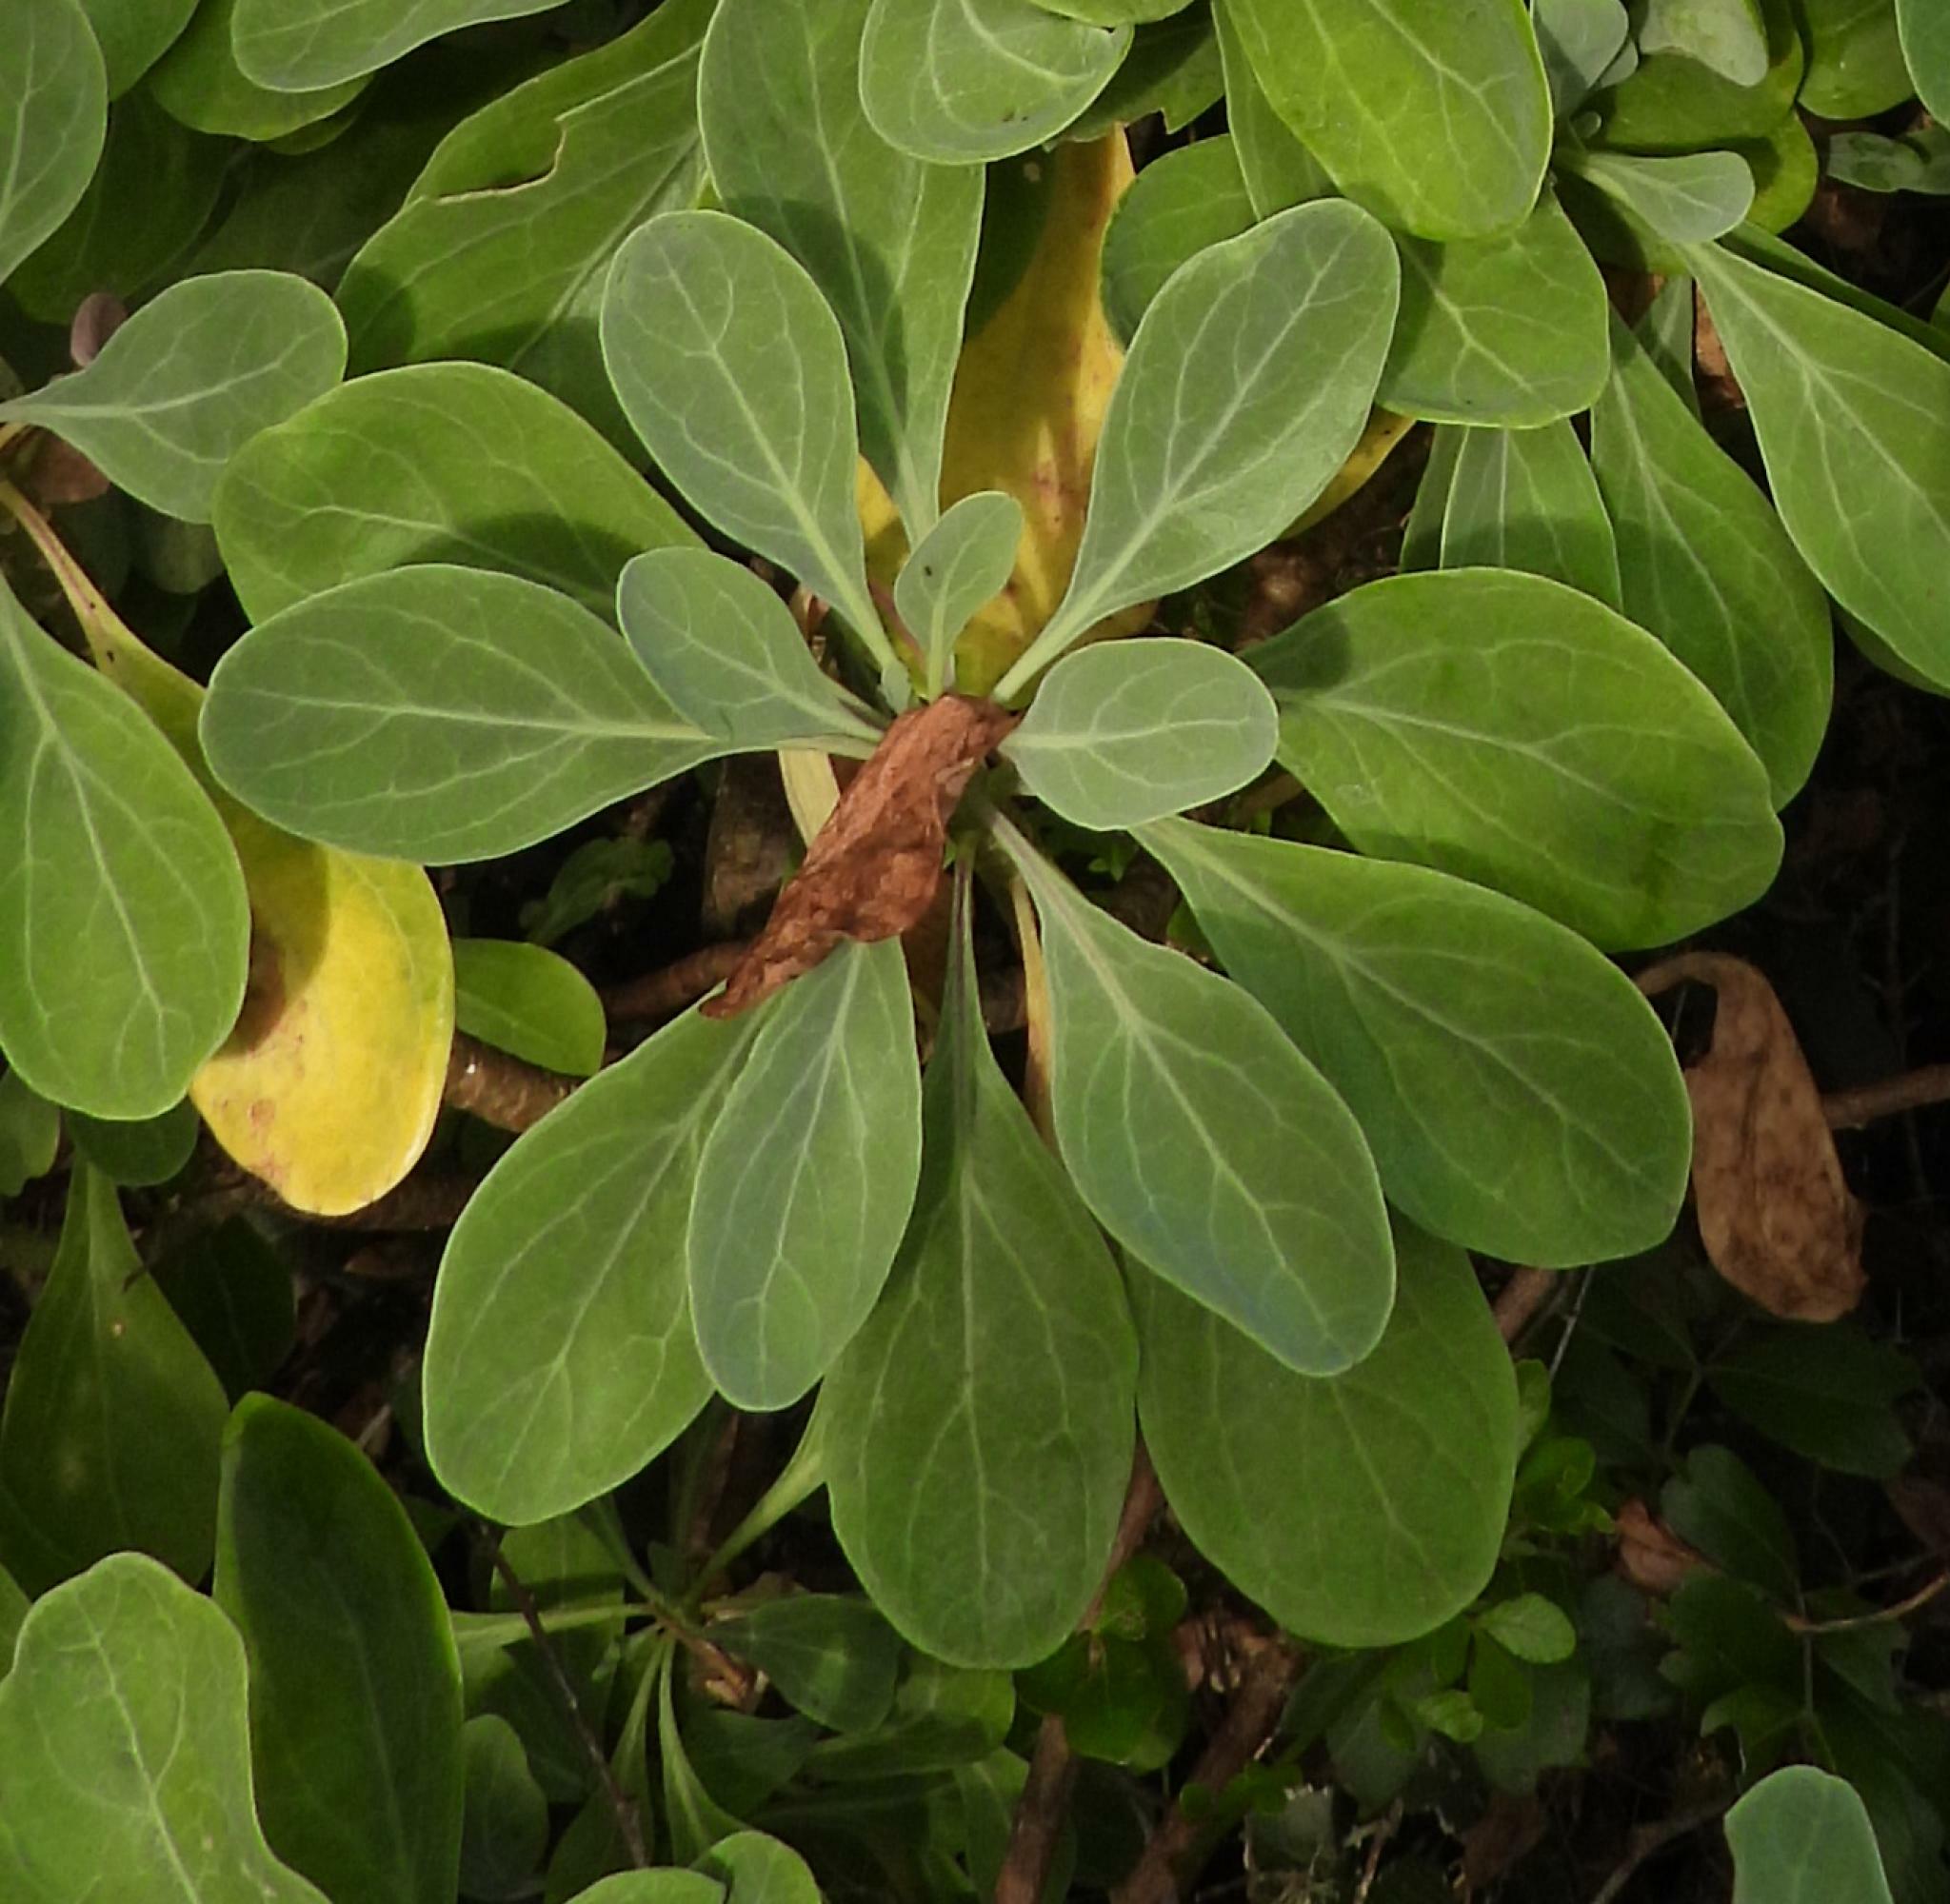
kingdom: Plantae
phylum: Tracheophyta
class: Magnoliopsida
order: Asterales
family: Asteraceae
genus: Othonna
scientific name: Othonna triplinervia
